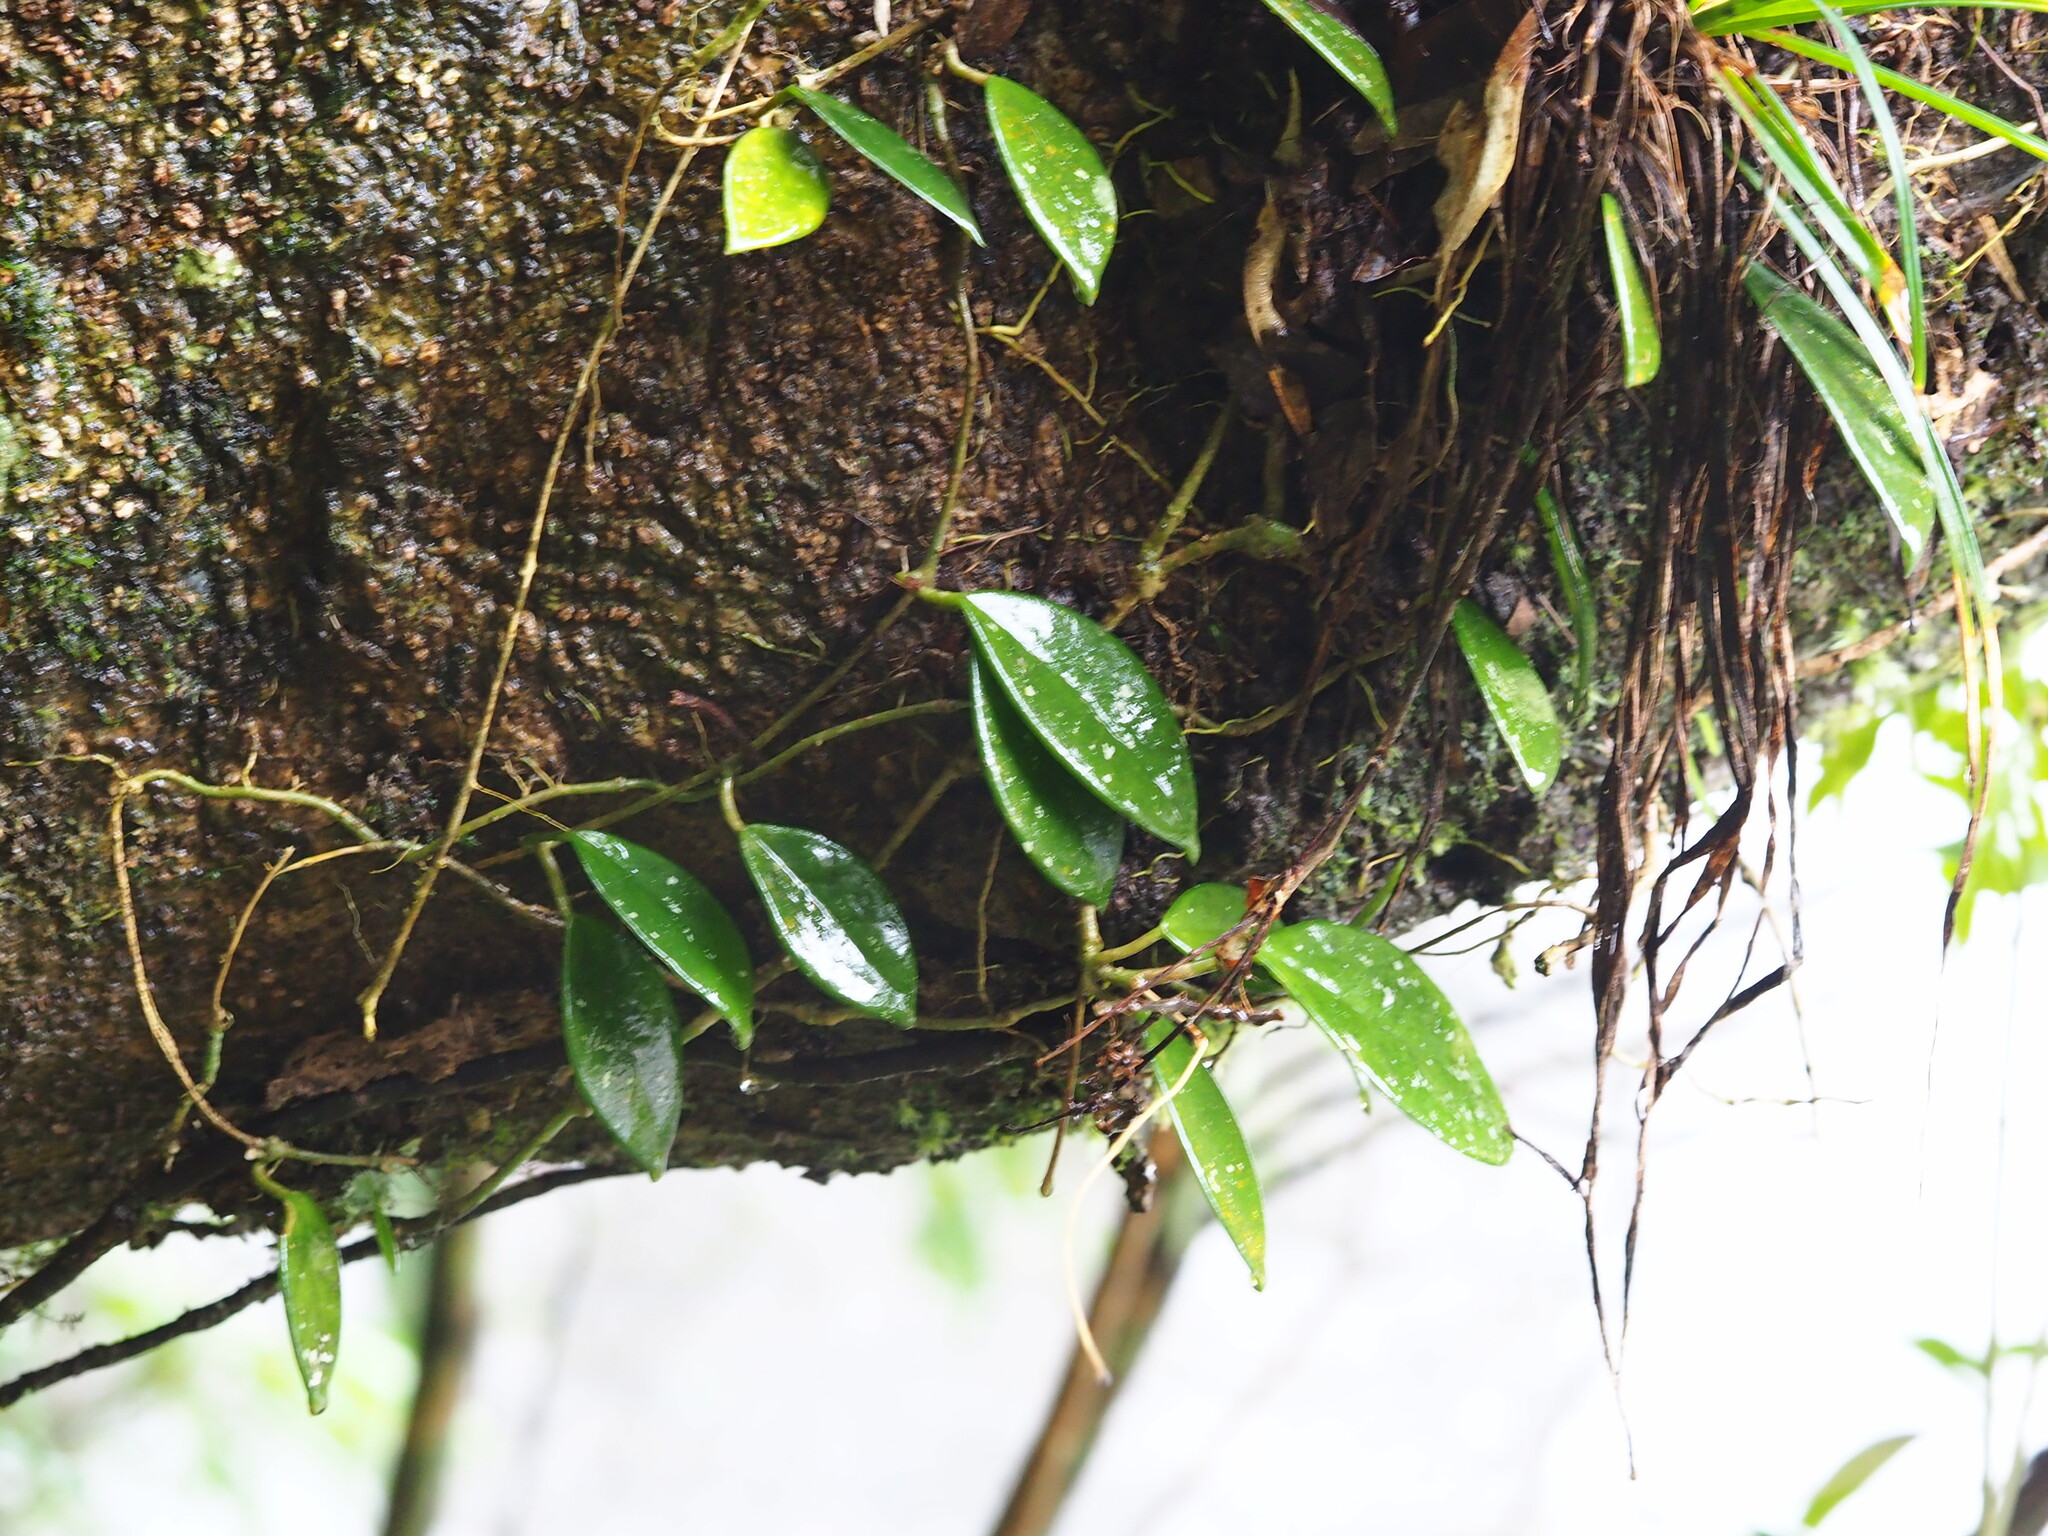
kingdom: Plantae
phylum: Tracheophyta
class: Magnoliopsida
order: Gentianales
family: Apocynaceae
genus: Hoya
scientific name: Hoya carnosa
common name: Honeyplant
